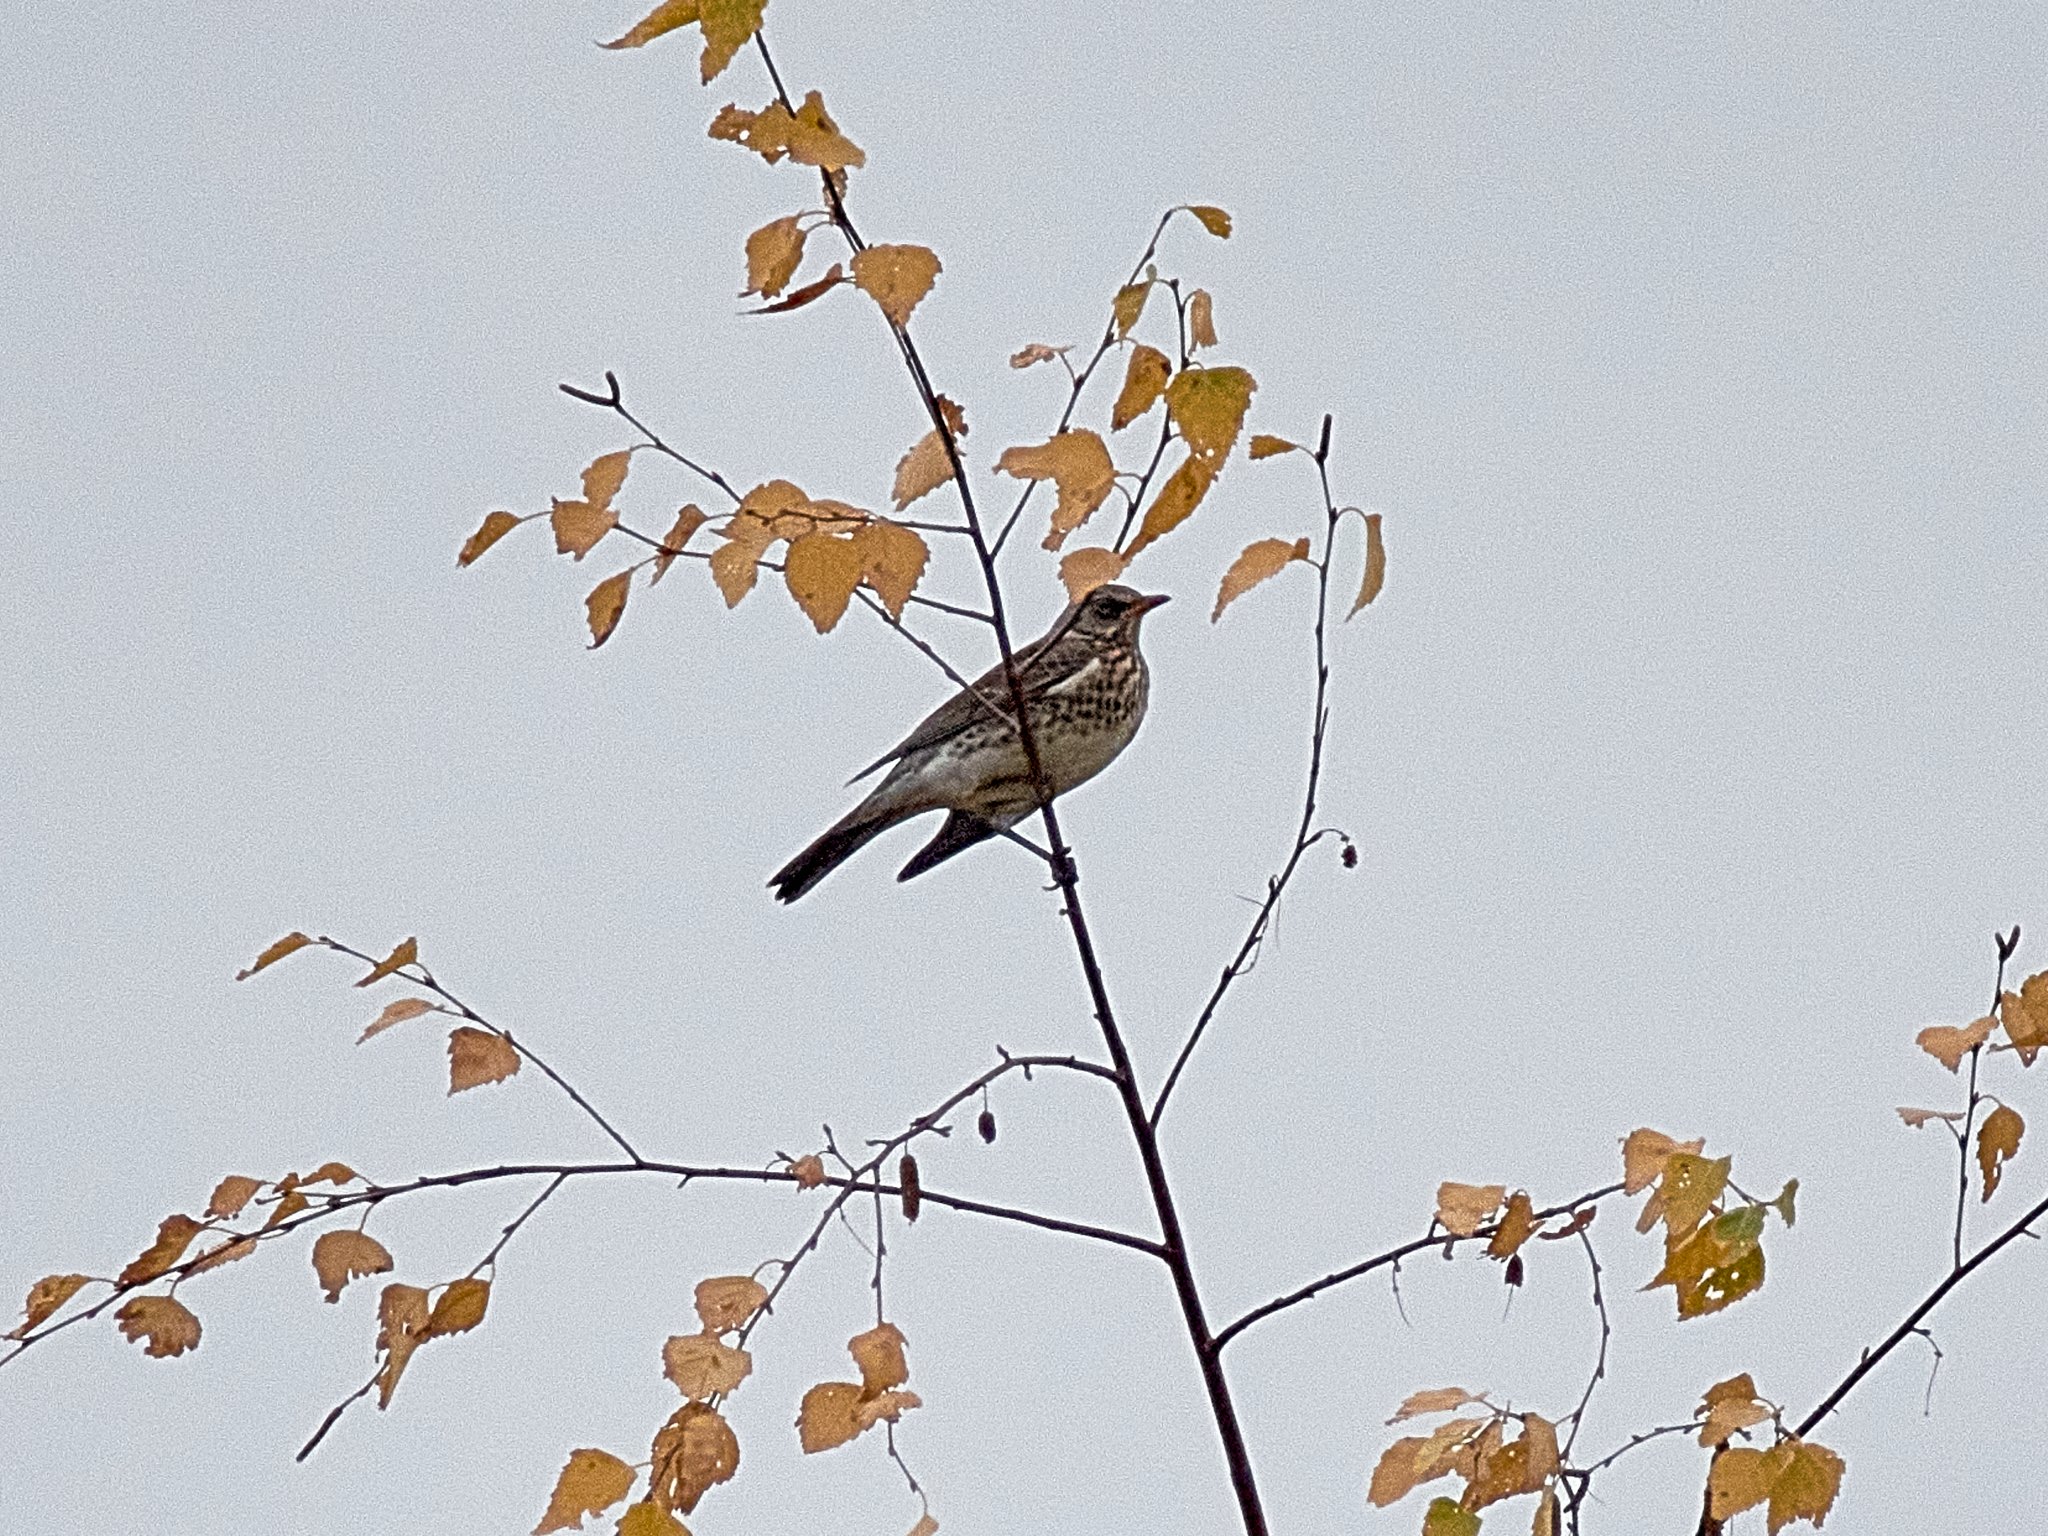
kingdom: Animalia
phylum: Chordata
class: Aves
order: Passeriformes
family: Turdidae
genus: Turdus
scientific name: Turdus pilaris
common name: Fieldfare
